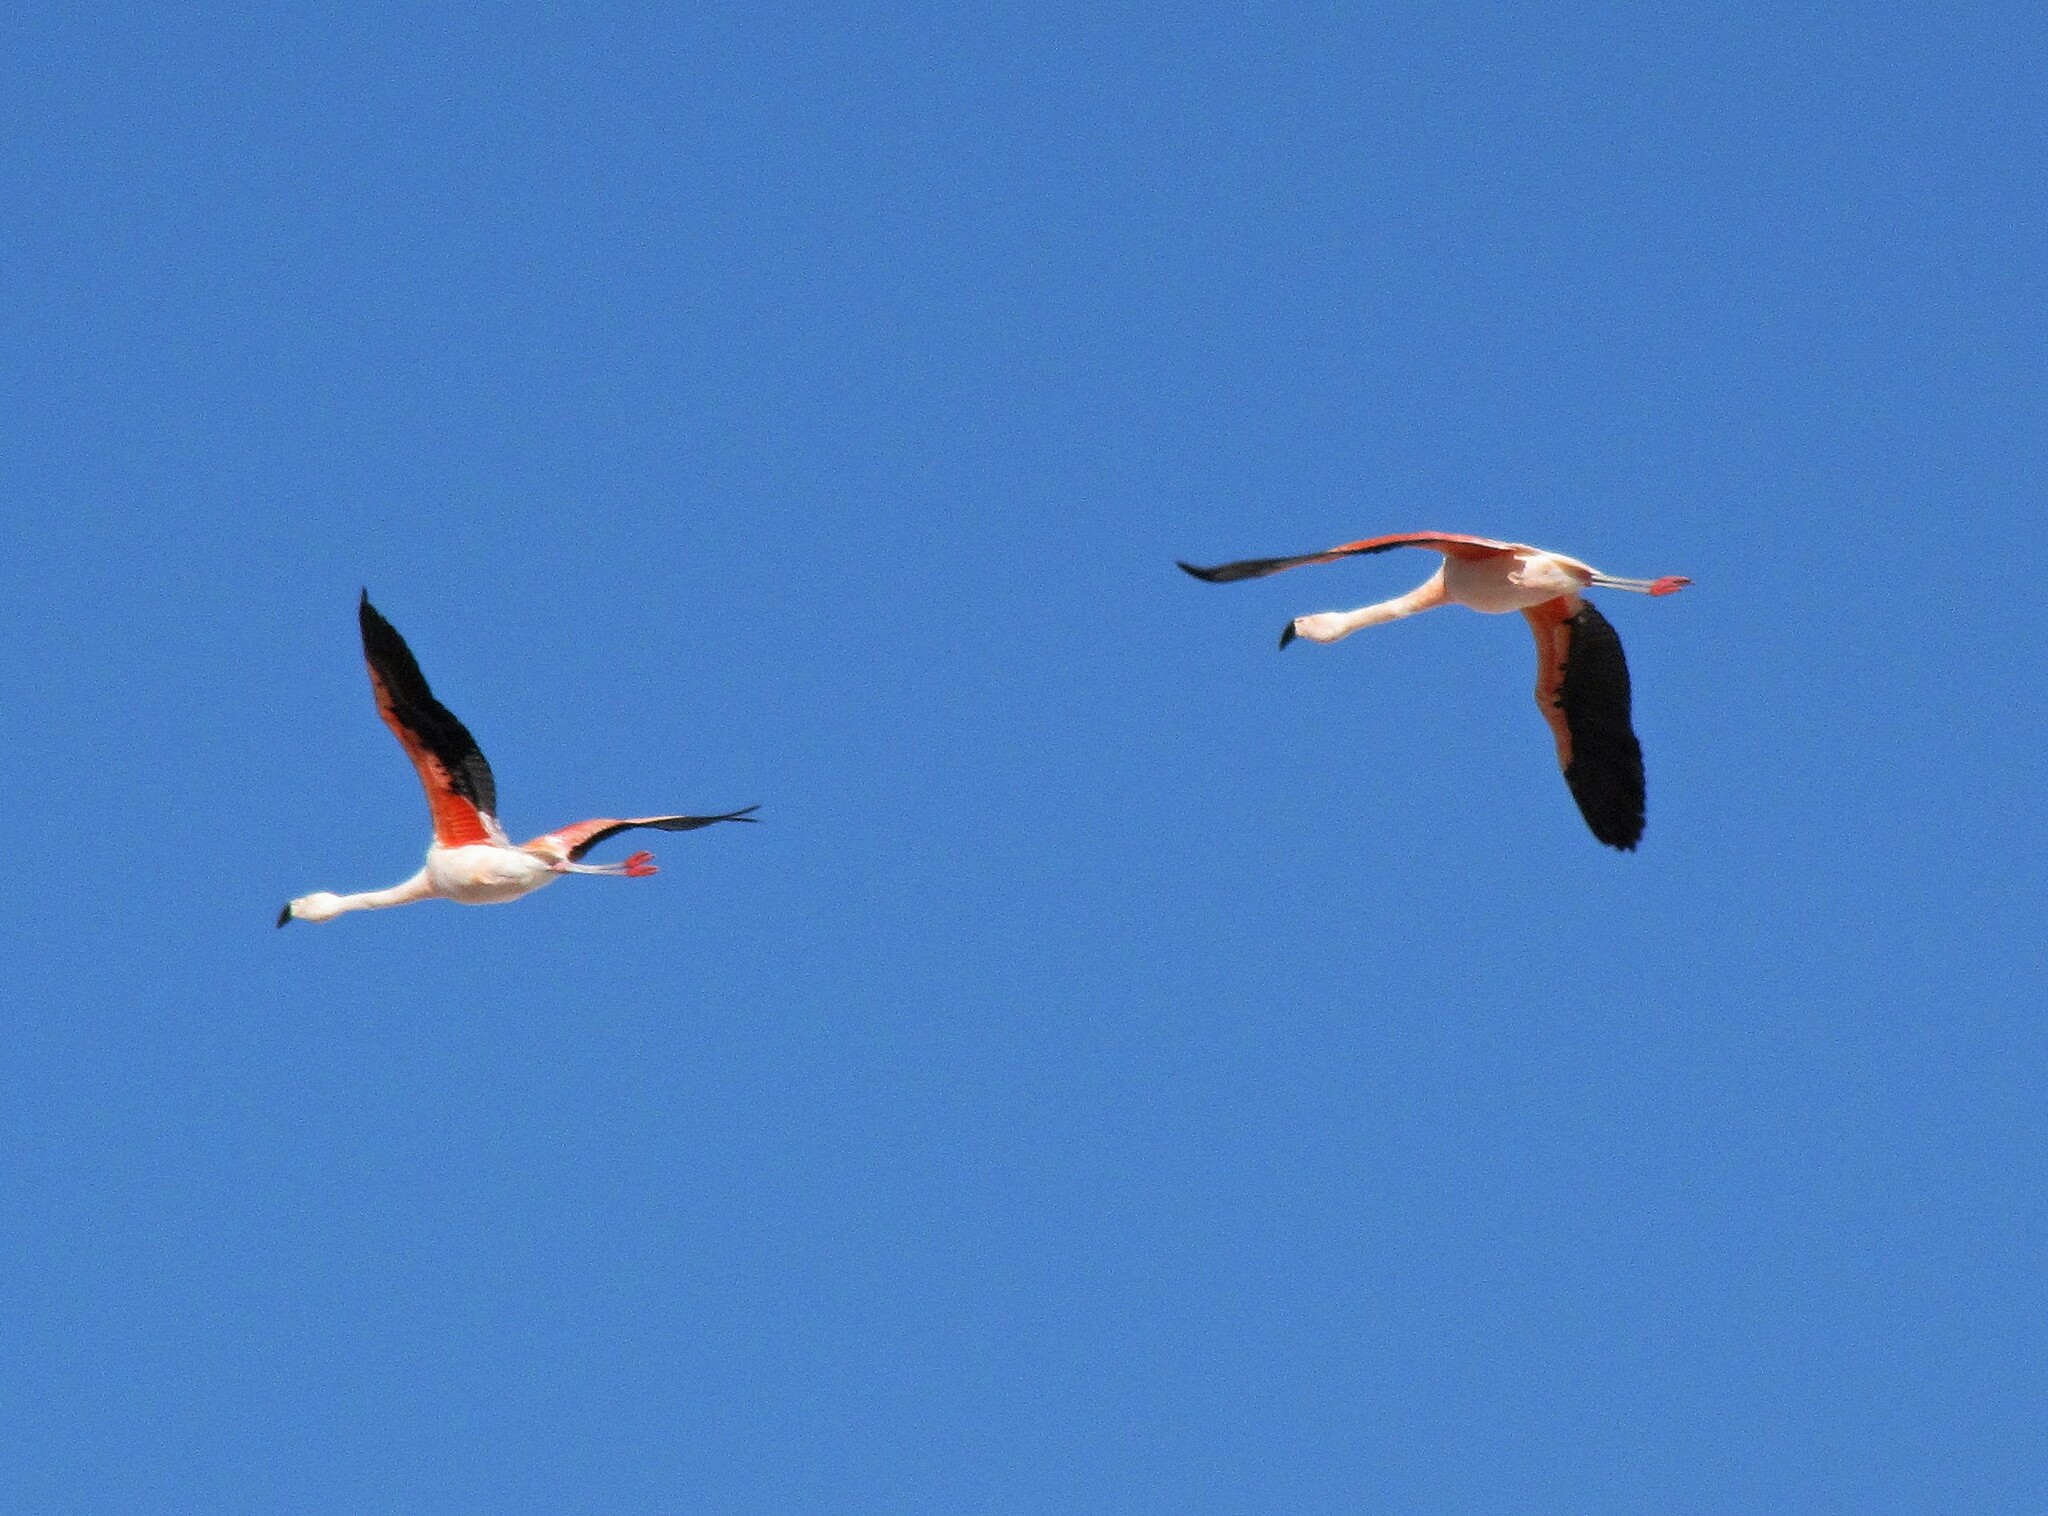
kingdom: Animalia
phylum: Chordata
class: Aves
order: Phoenicopteriformes
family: Phoenicopteridae
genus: Phoenicopterus
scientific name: Phoenicopterus chilensis
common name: Chilean flamingo
